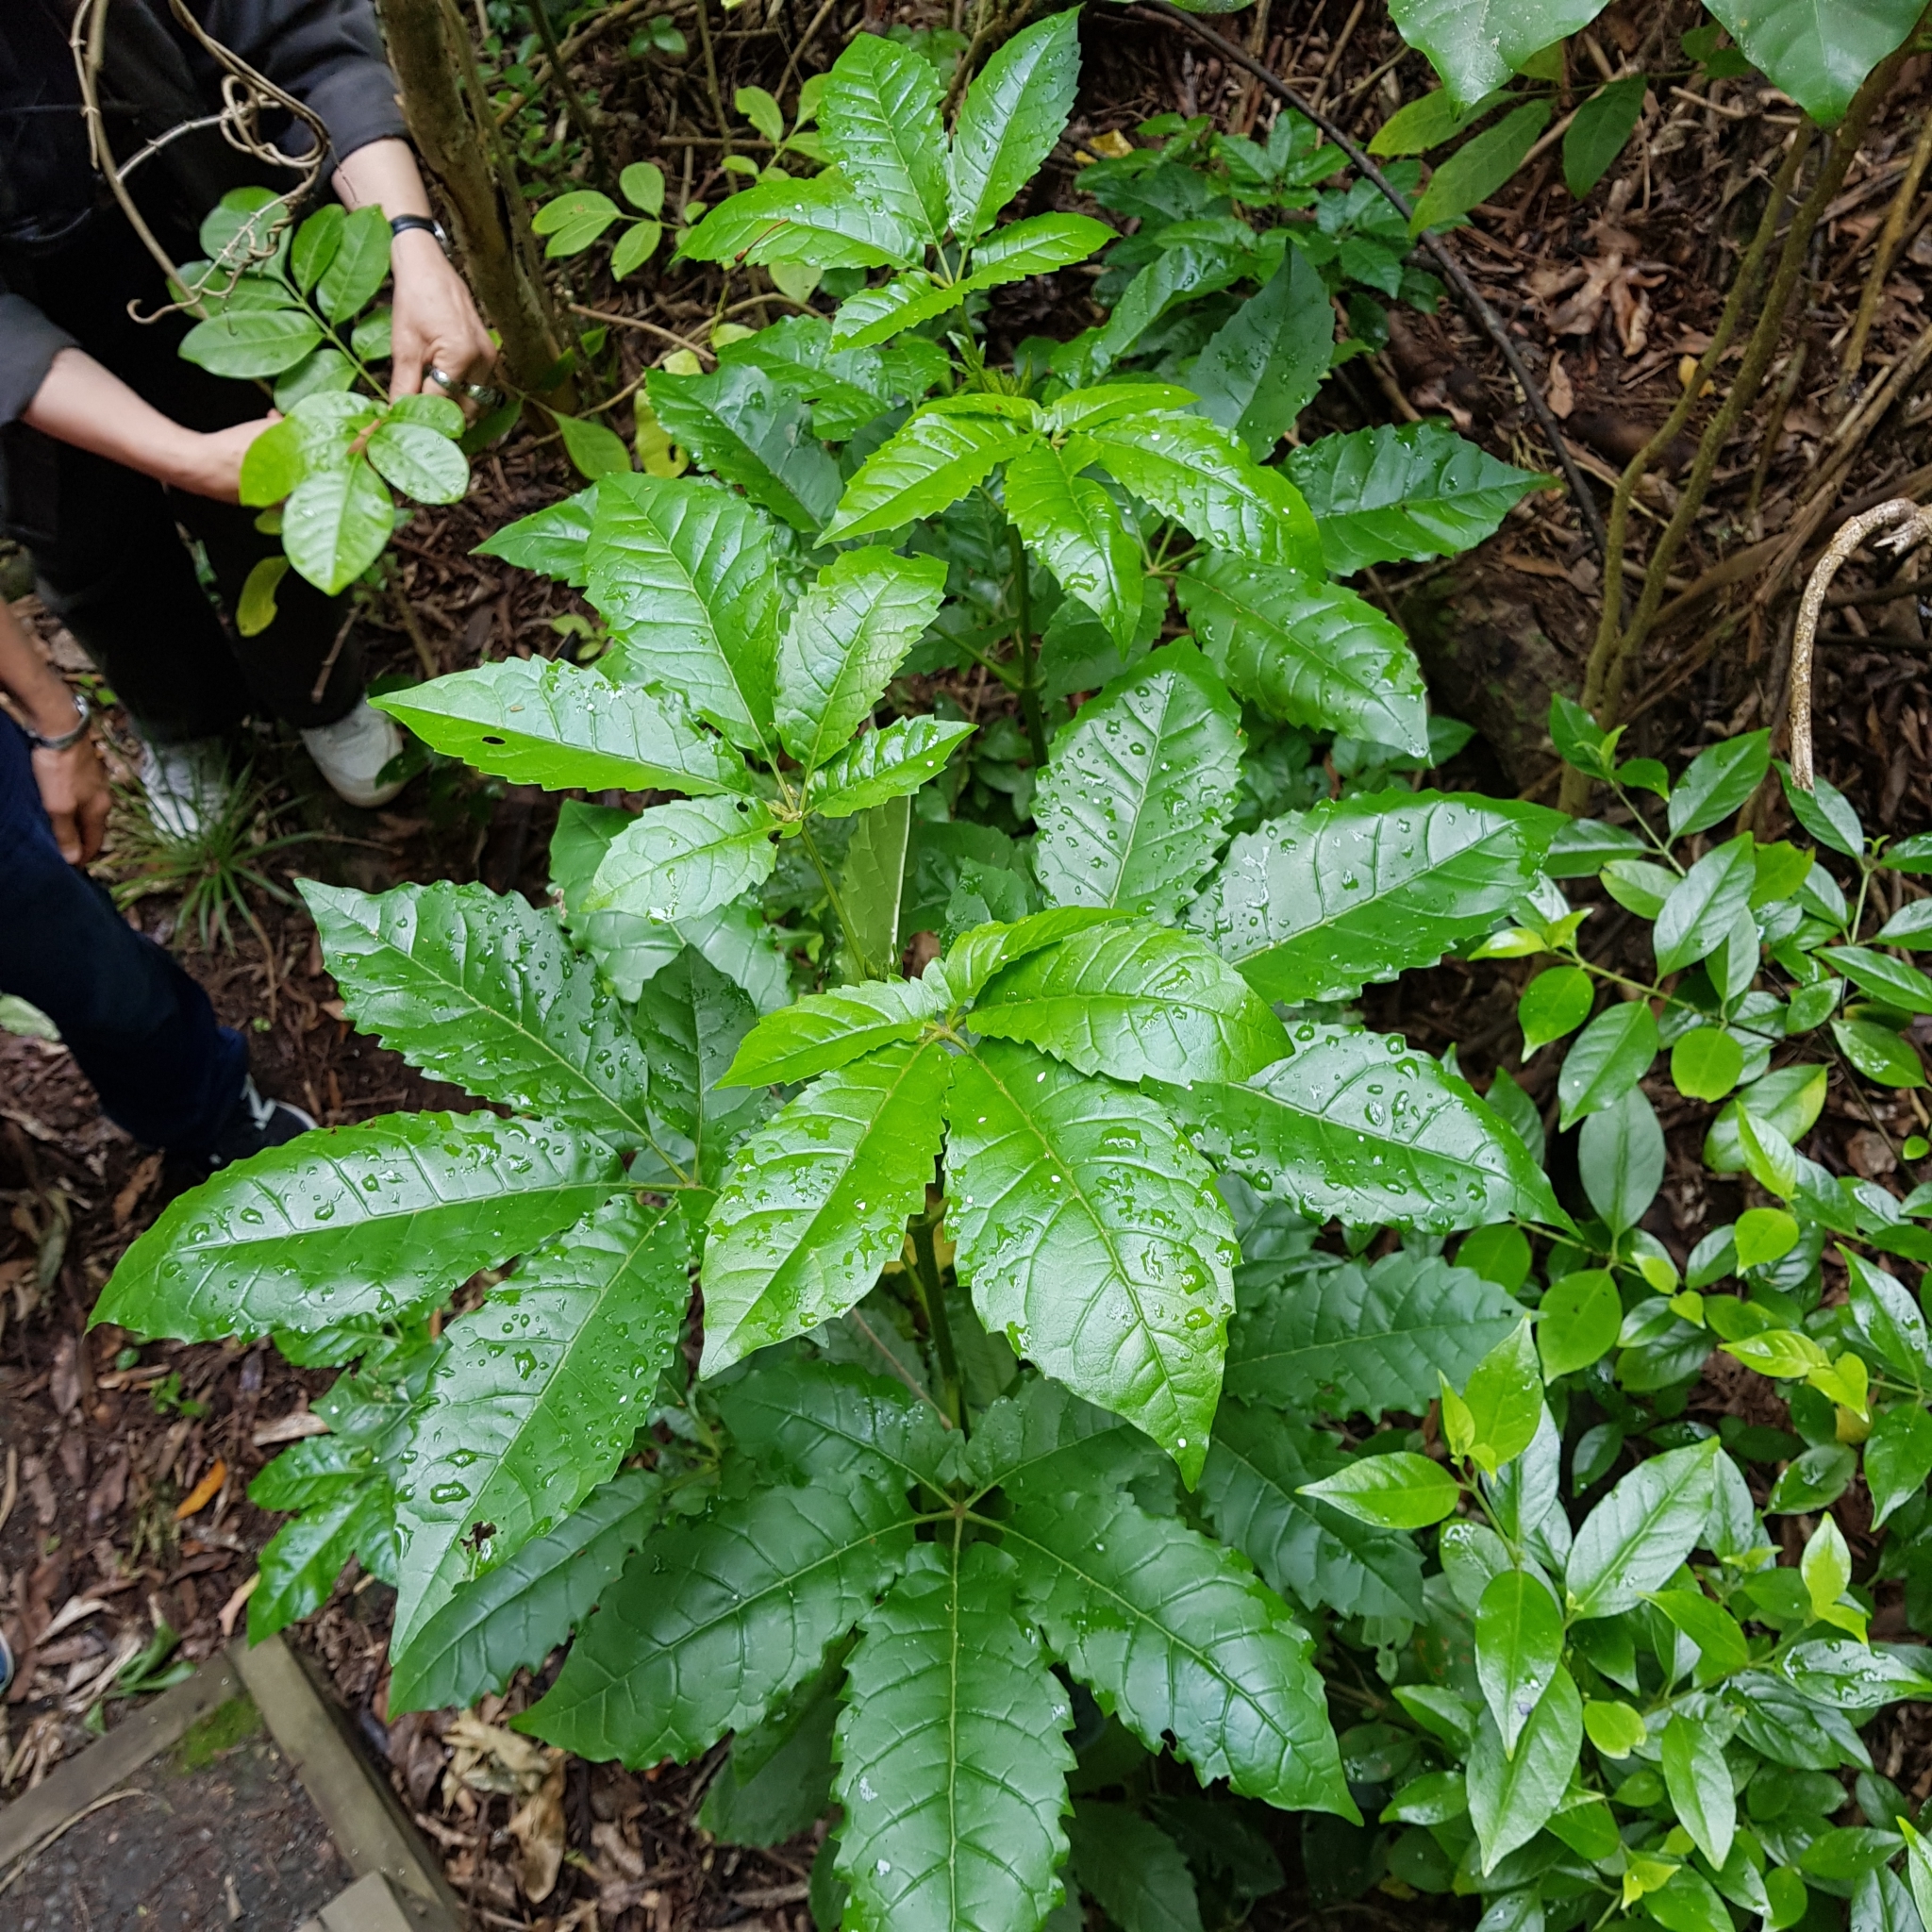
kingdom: Plantae
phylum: Tracheophyta
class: Magnoliopsida
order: Lamiales
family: Lamiaceae
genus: Vitex
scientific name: Vitex lucens
